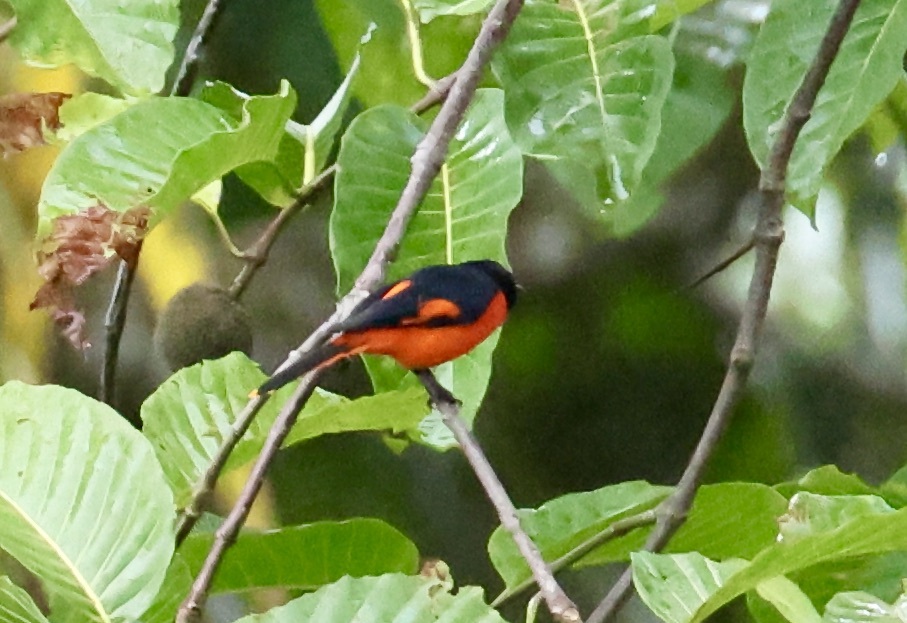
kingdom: Animalia
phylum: Chordata
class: Aves
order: Passeriformes
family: Campephagidae
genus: Pericrocotus
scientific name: Pericrocotus igneus
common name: Fiery minivet
